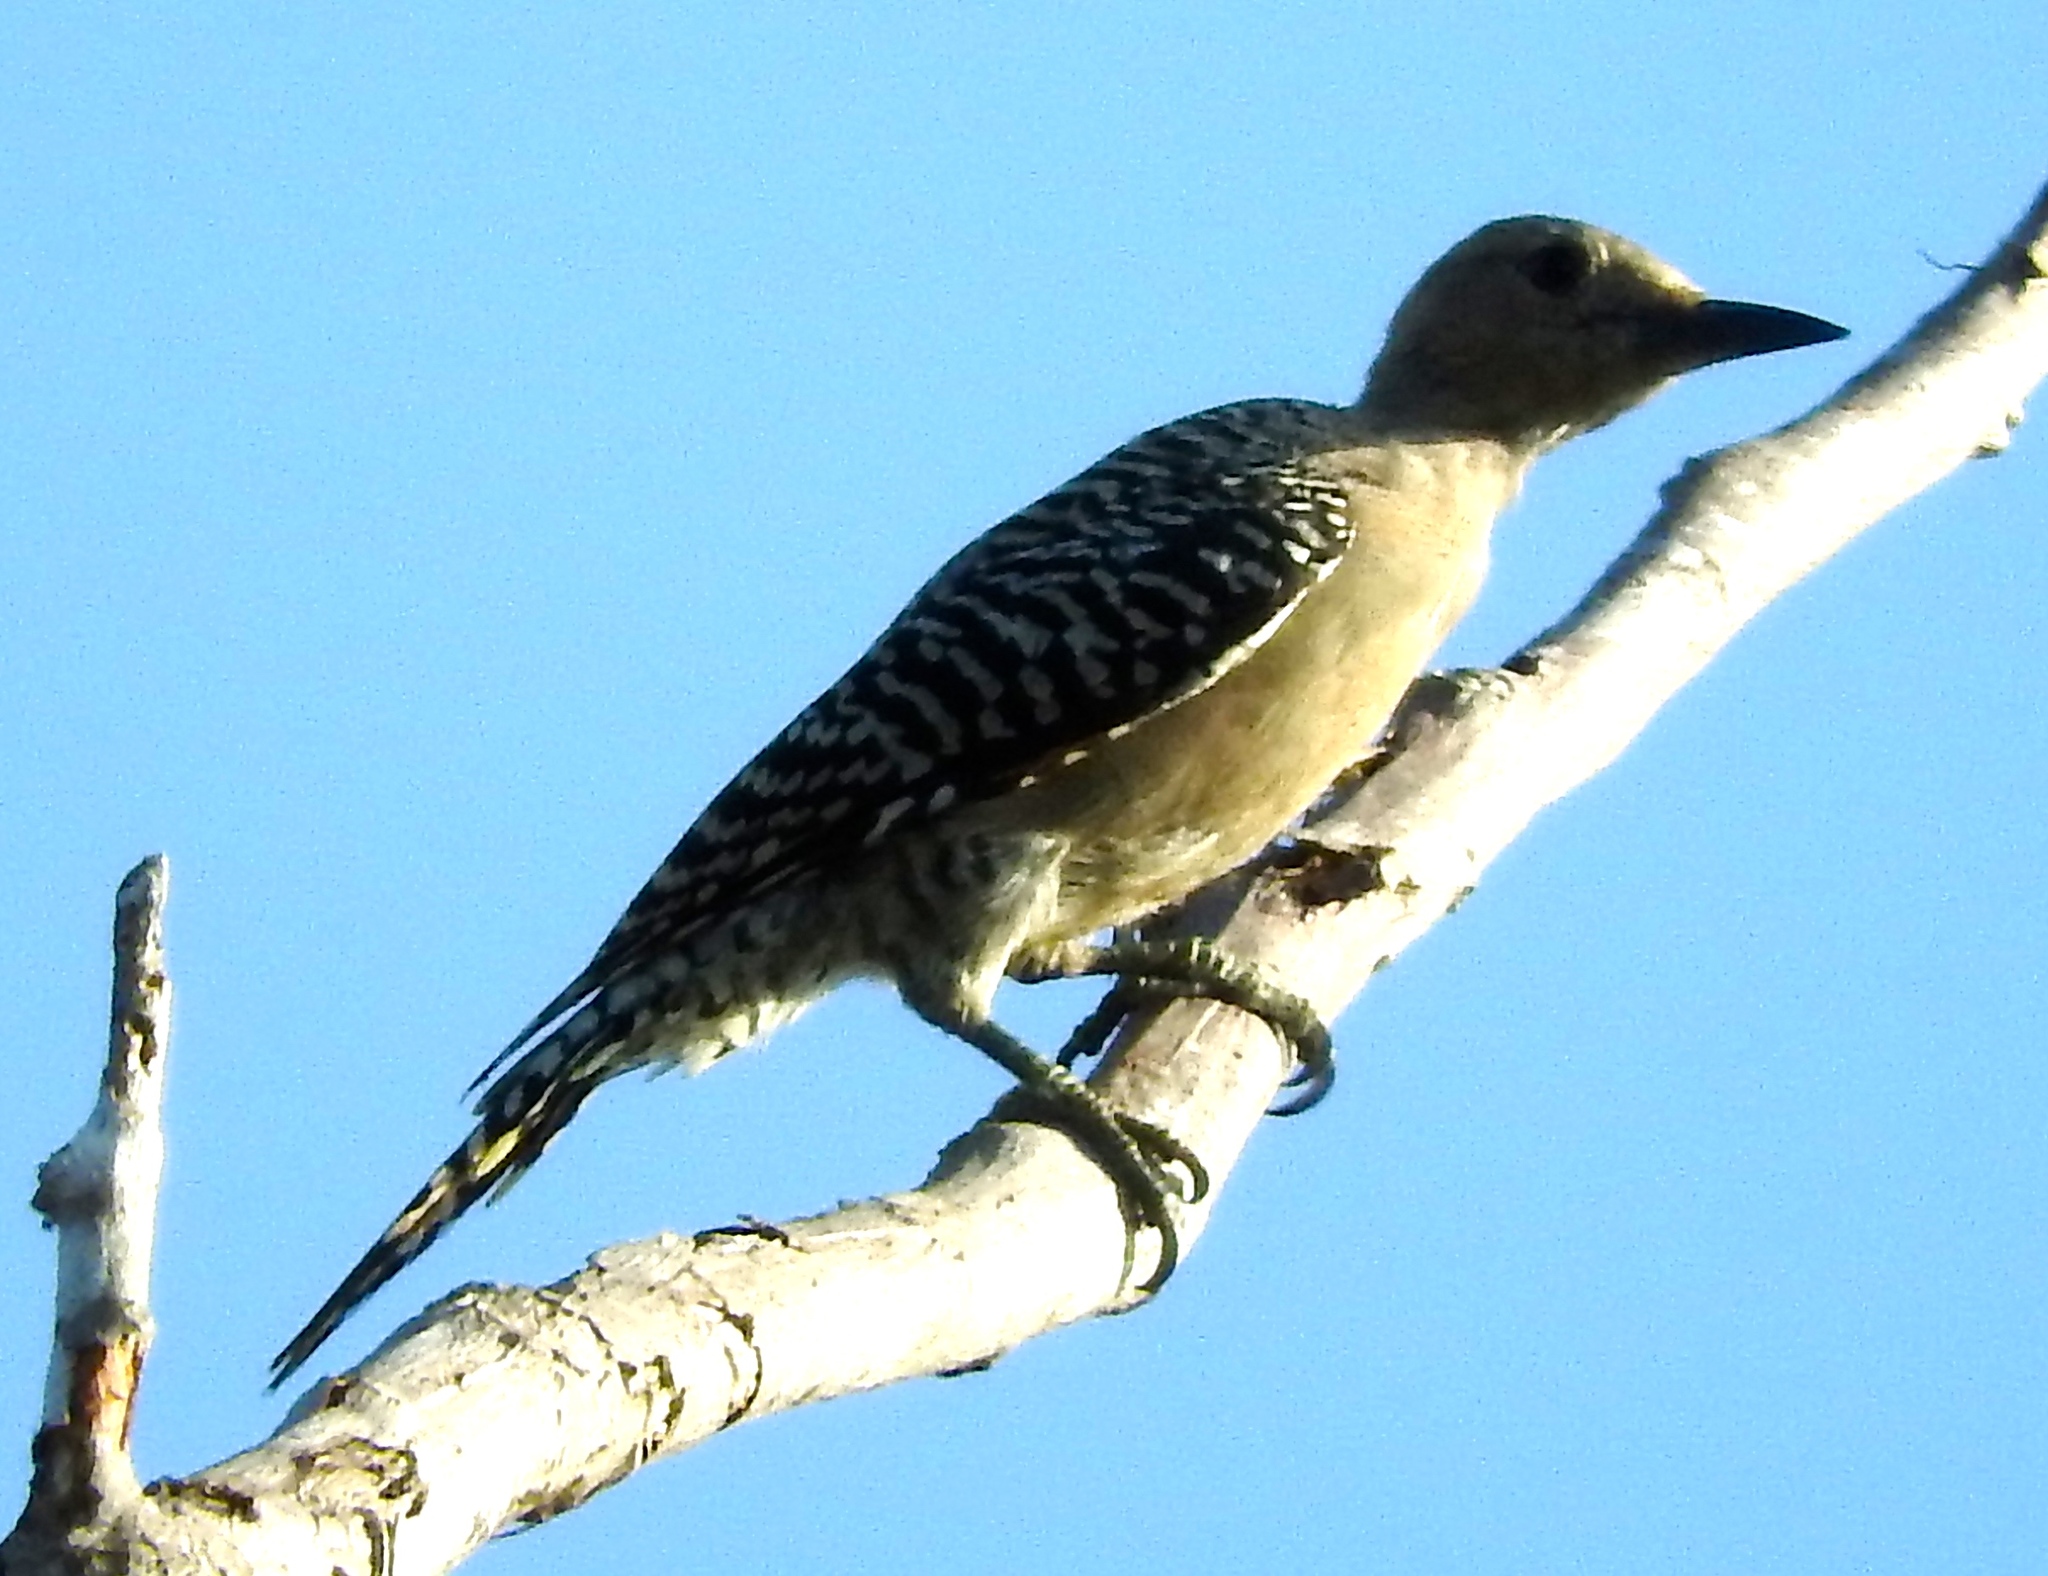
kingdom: Animalia
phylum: Chordata
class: Aves
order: Piciformes
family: Picidae
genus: Melanerpes
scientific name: Melanerpes uropygialis
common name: Gila woodpecker
